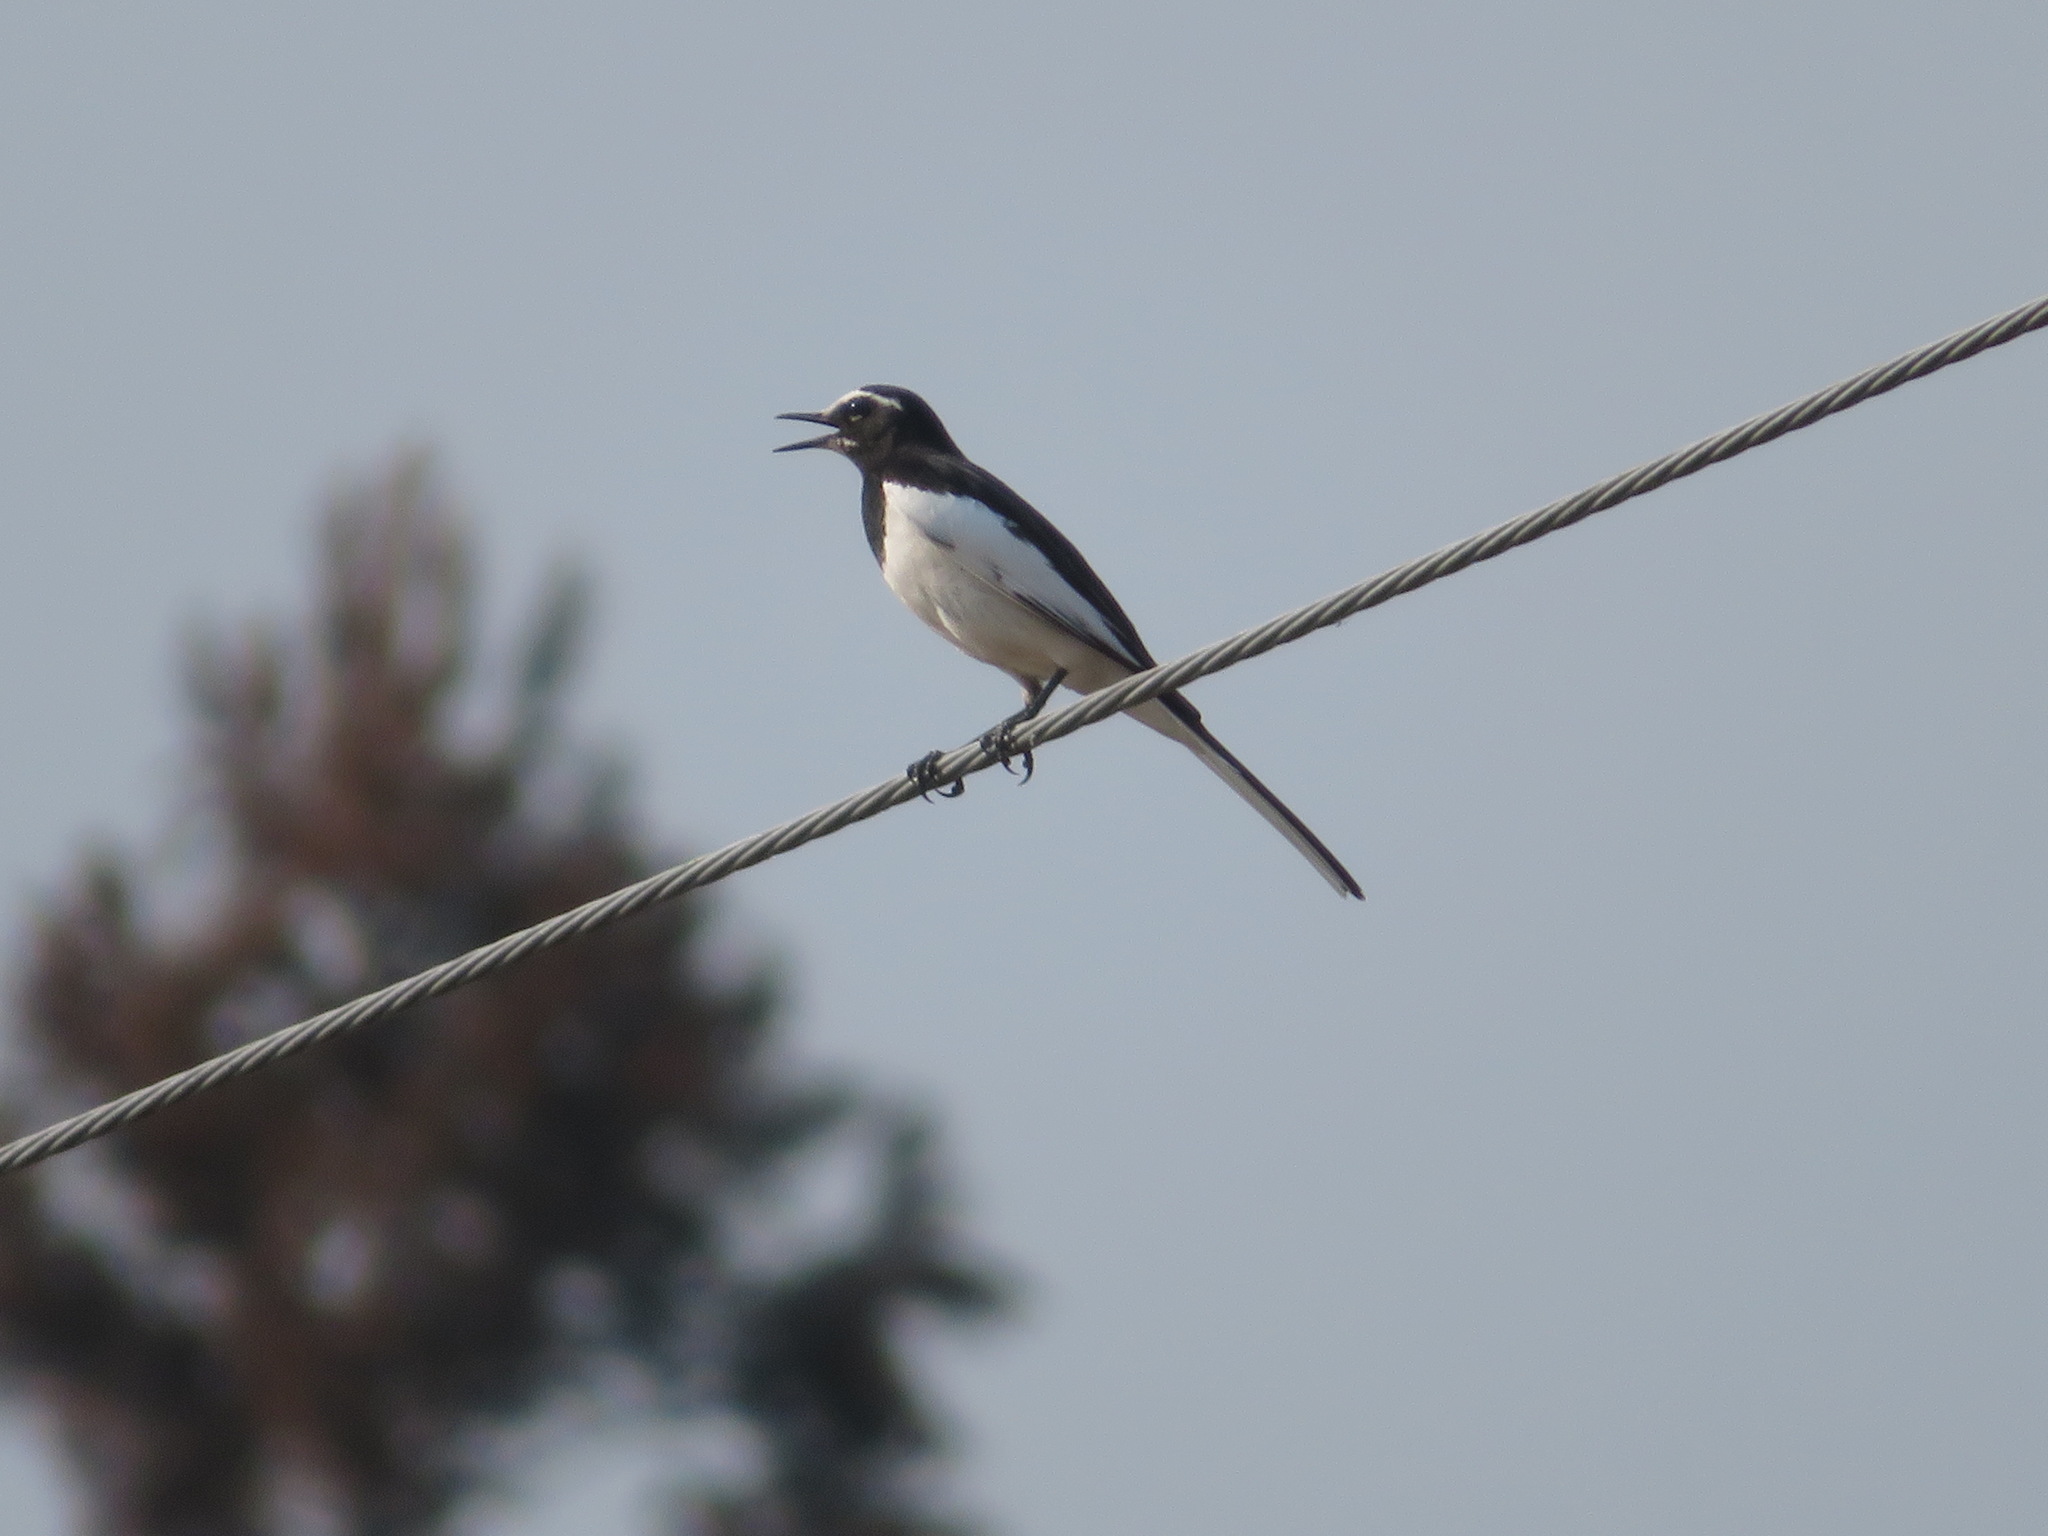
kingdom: Animalia
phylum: Chordata
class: Aves
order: Passeriformes
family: Motacillidae
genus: Motacilla
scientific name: Motacilla grandis
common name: Japanese wagtail
